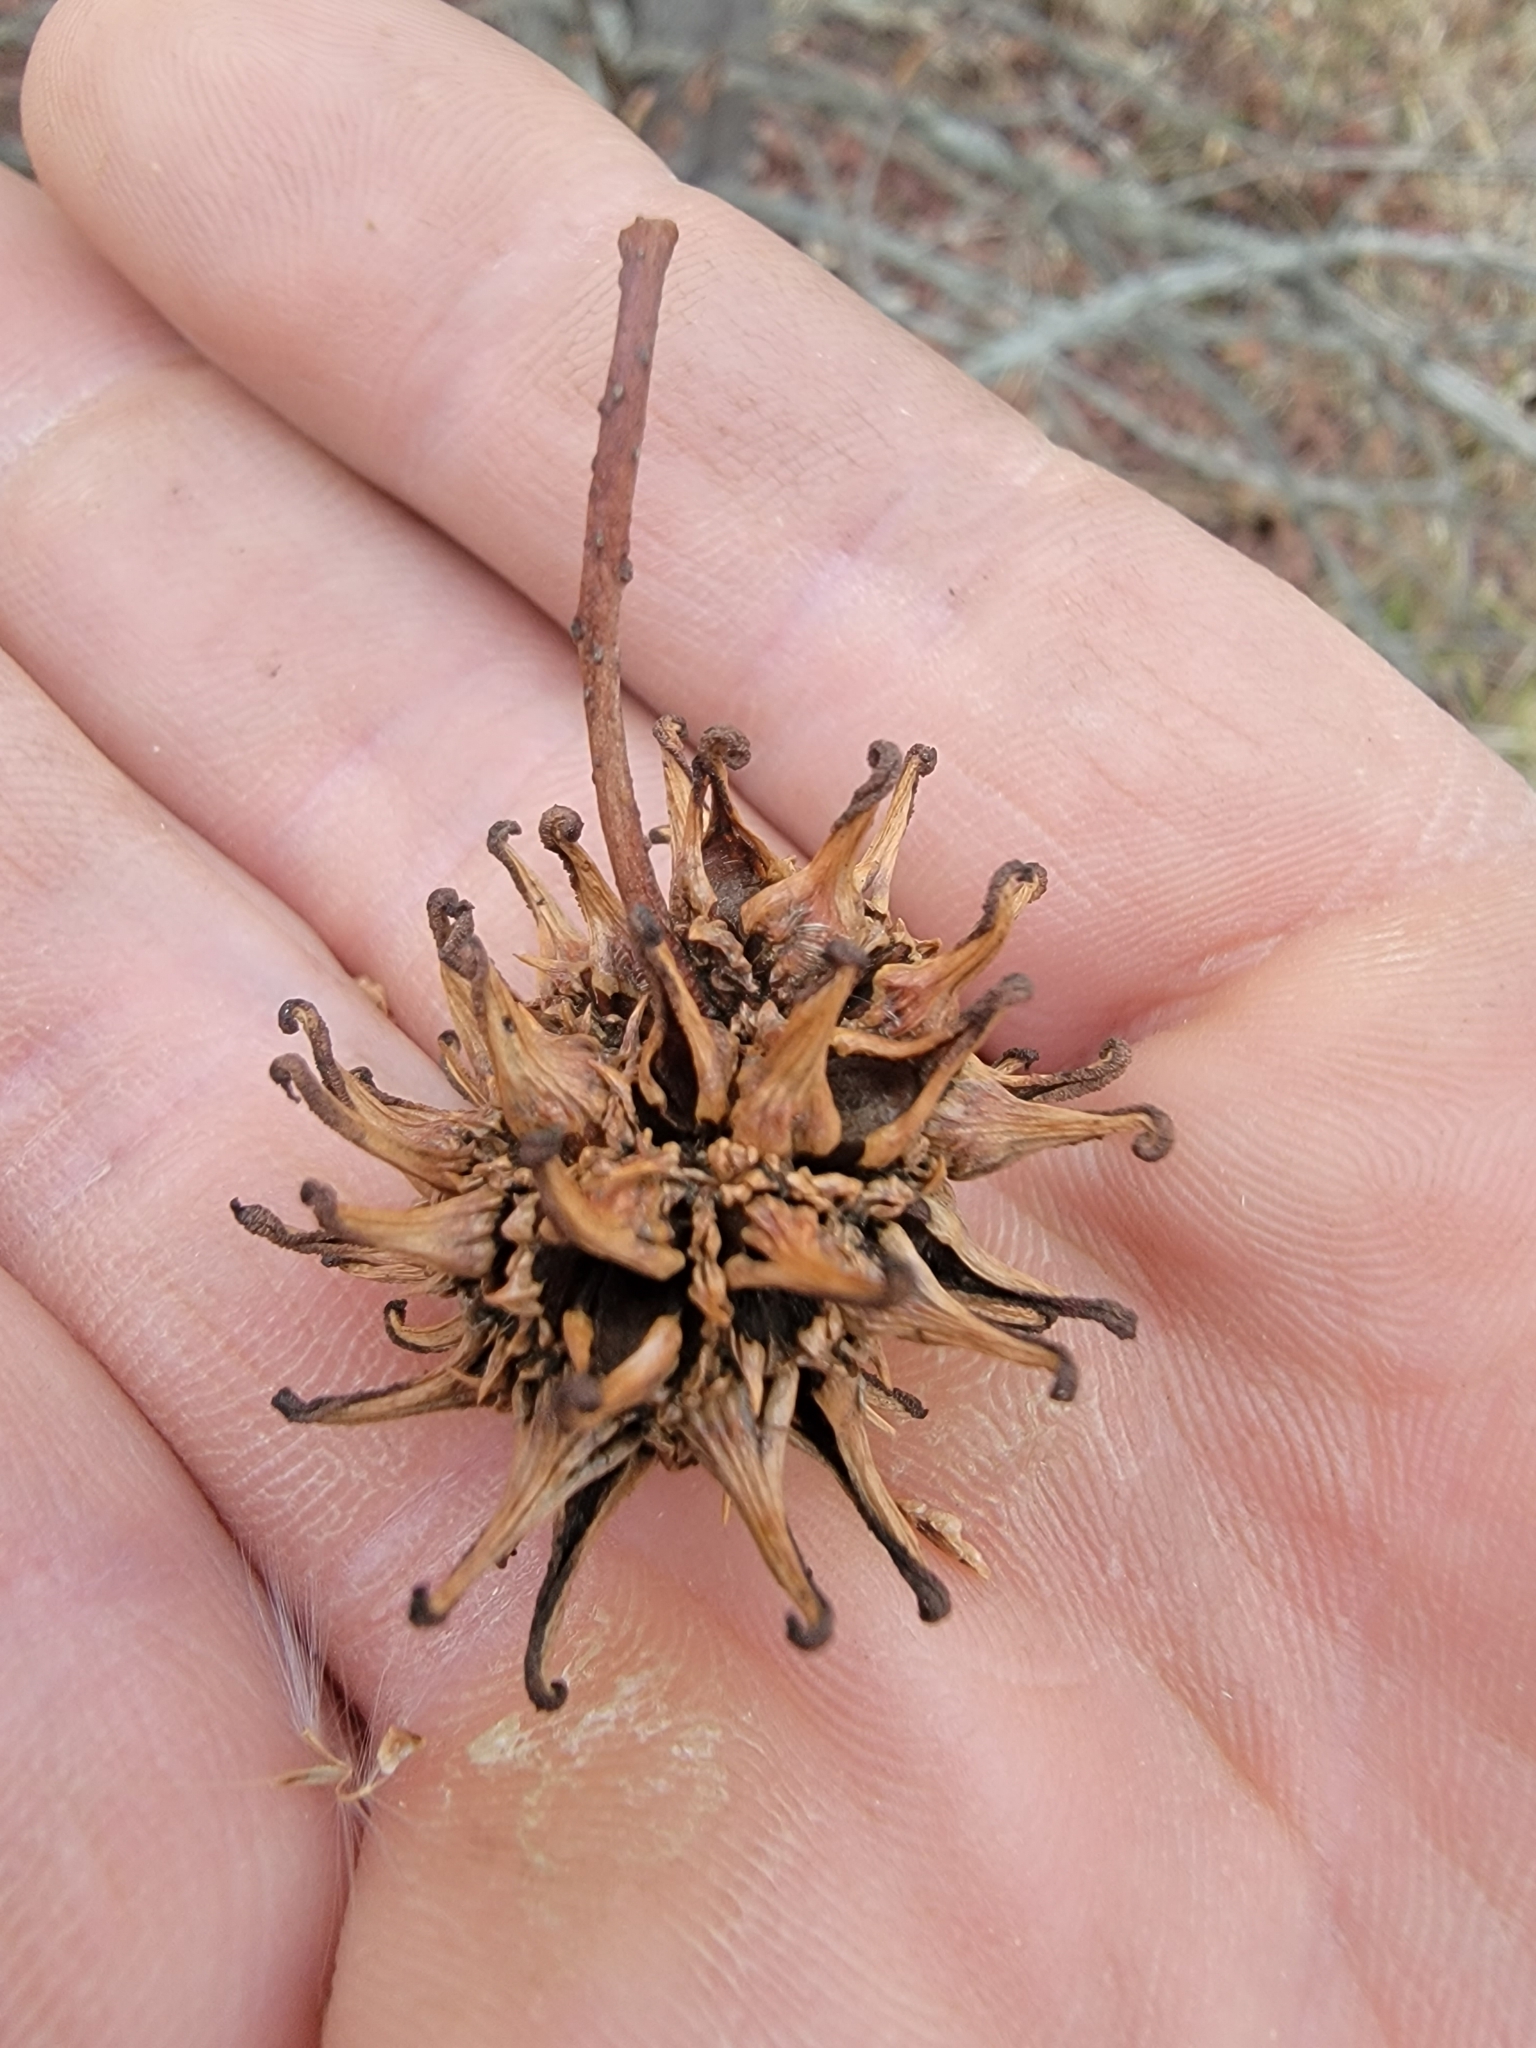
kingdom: Plantae
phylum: Tracheophyta
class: Magnoliopsida
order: Saxifragales
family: Altingiaceae
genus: Liquidambar
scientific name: Liquidambar styraciflua
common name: Sweet gum
